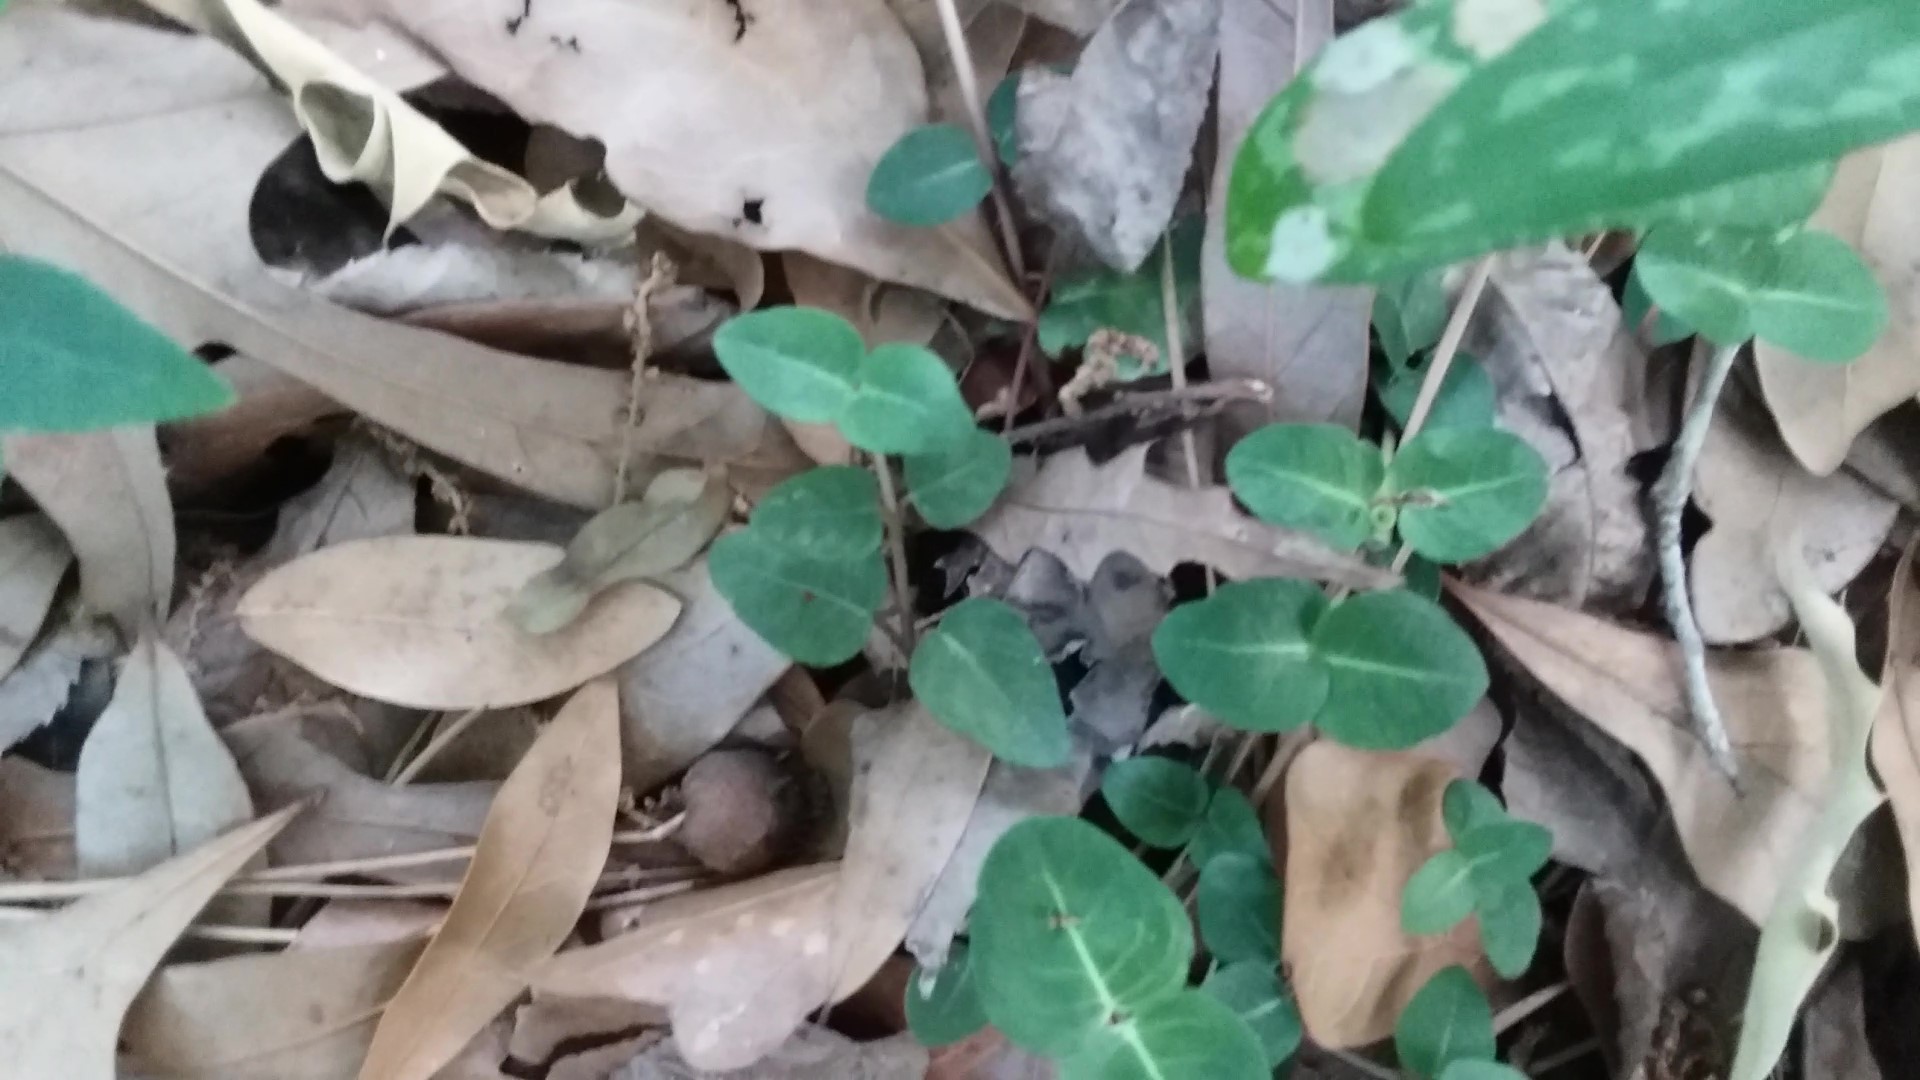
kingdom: Plantae
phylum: Tracheophyta
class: Magnoliopsida
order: Gentianales
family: Rubiaceae
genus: Mitchella
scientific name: Mitchella repens
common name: Partridge-berry
